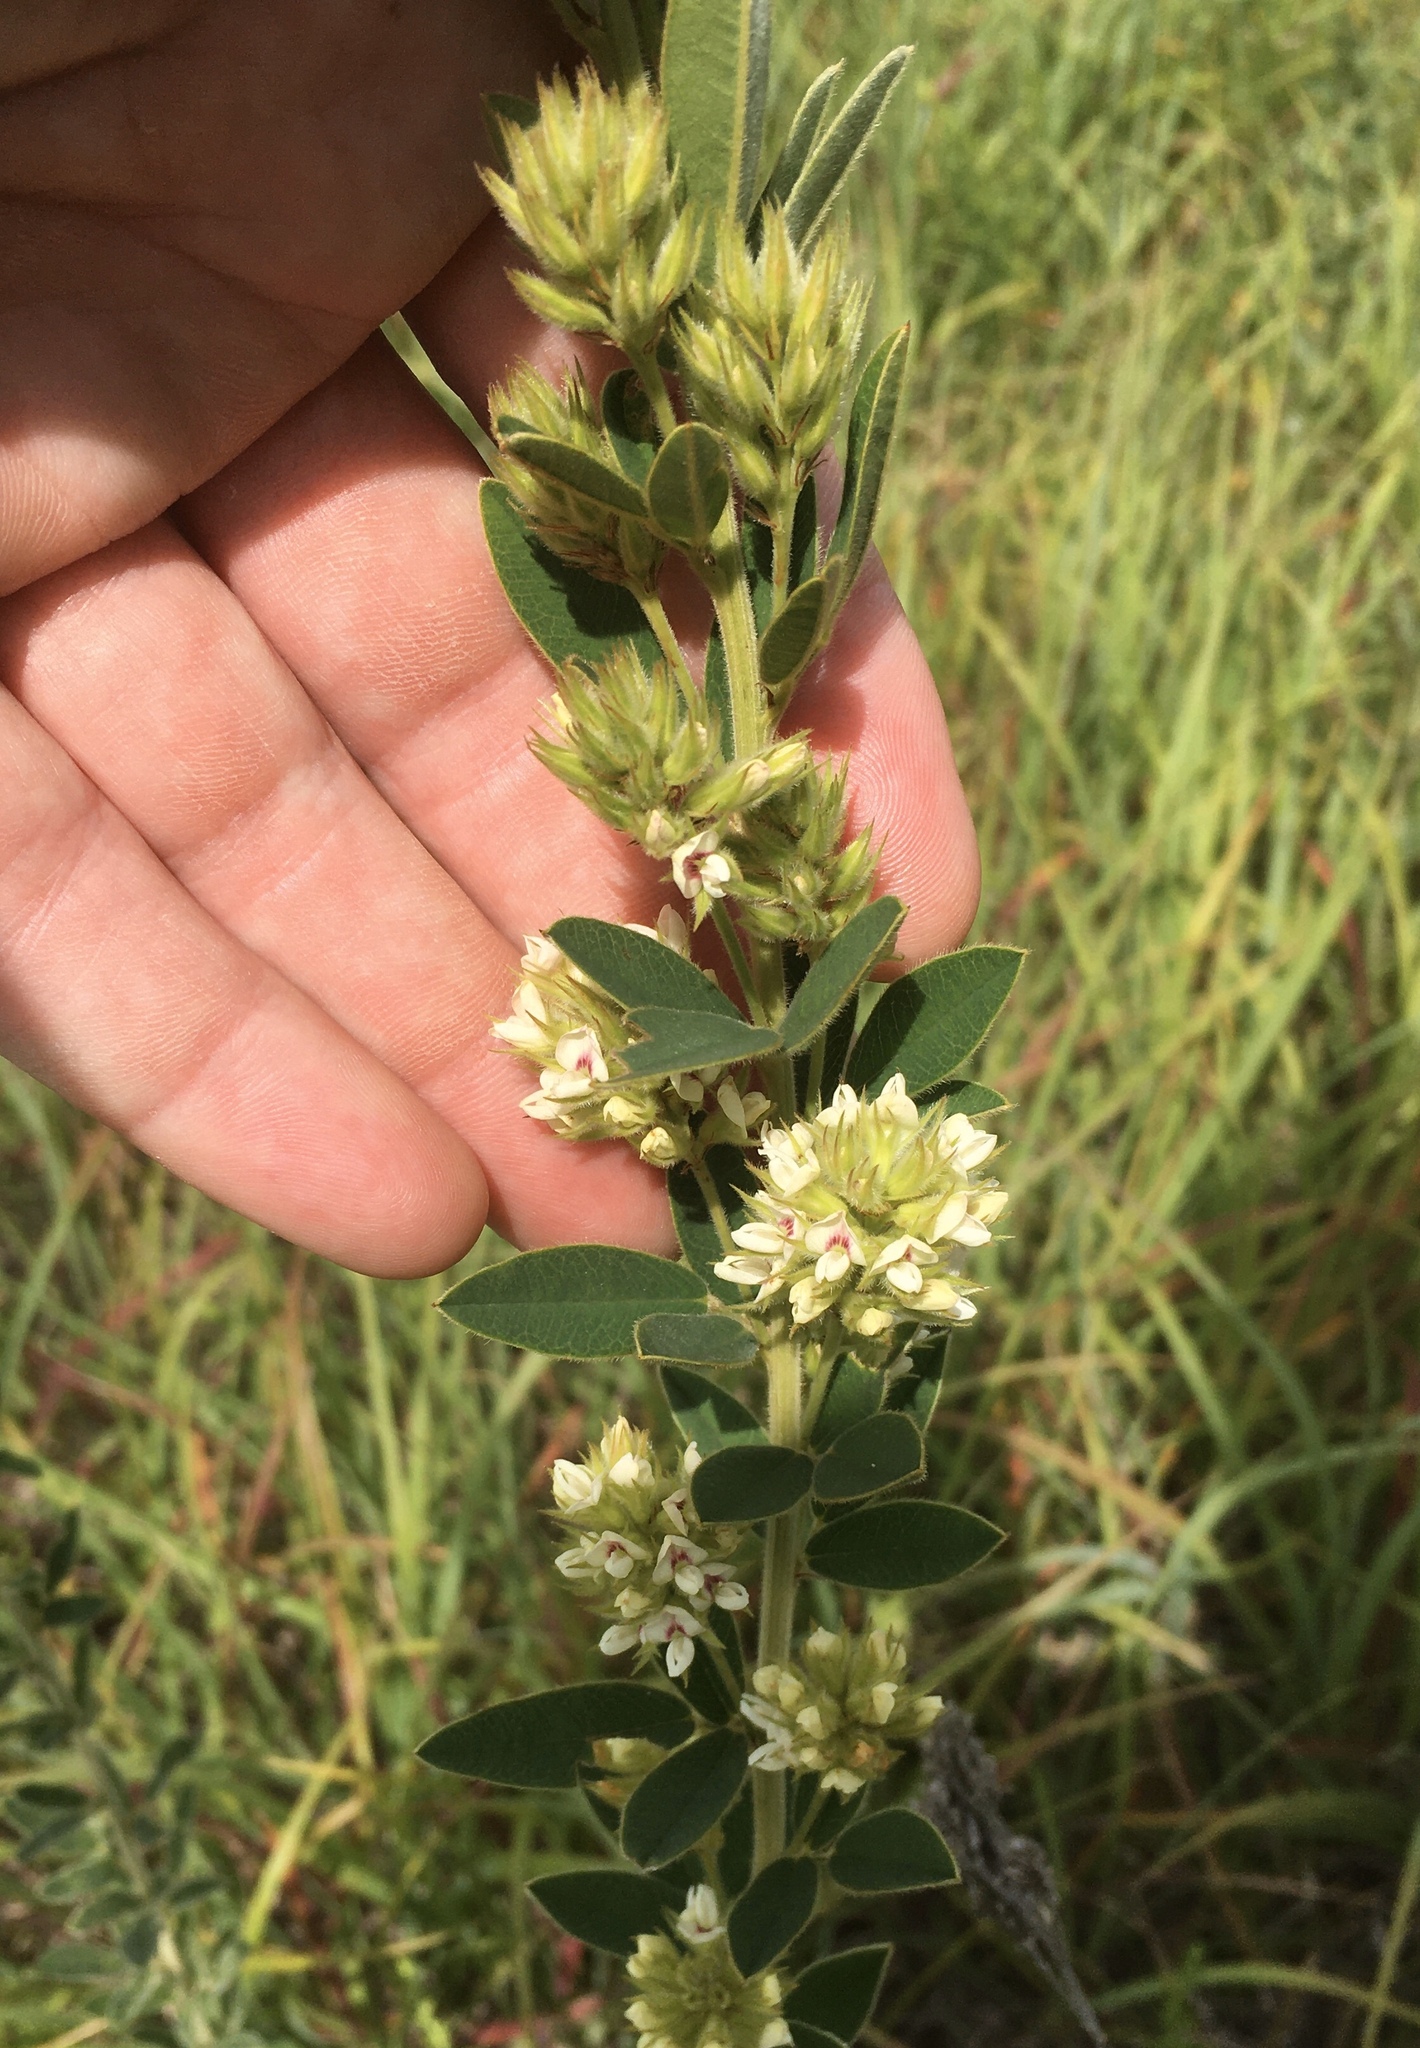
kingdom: Plantae
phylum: Tracheophyta
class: Magnoliopsida
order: Fabales
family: Fabaceae
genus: Lespedeza
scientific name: Lespedeza capitata
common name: Dusty clover
